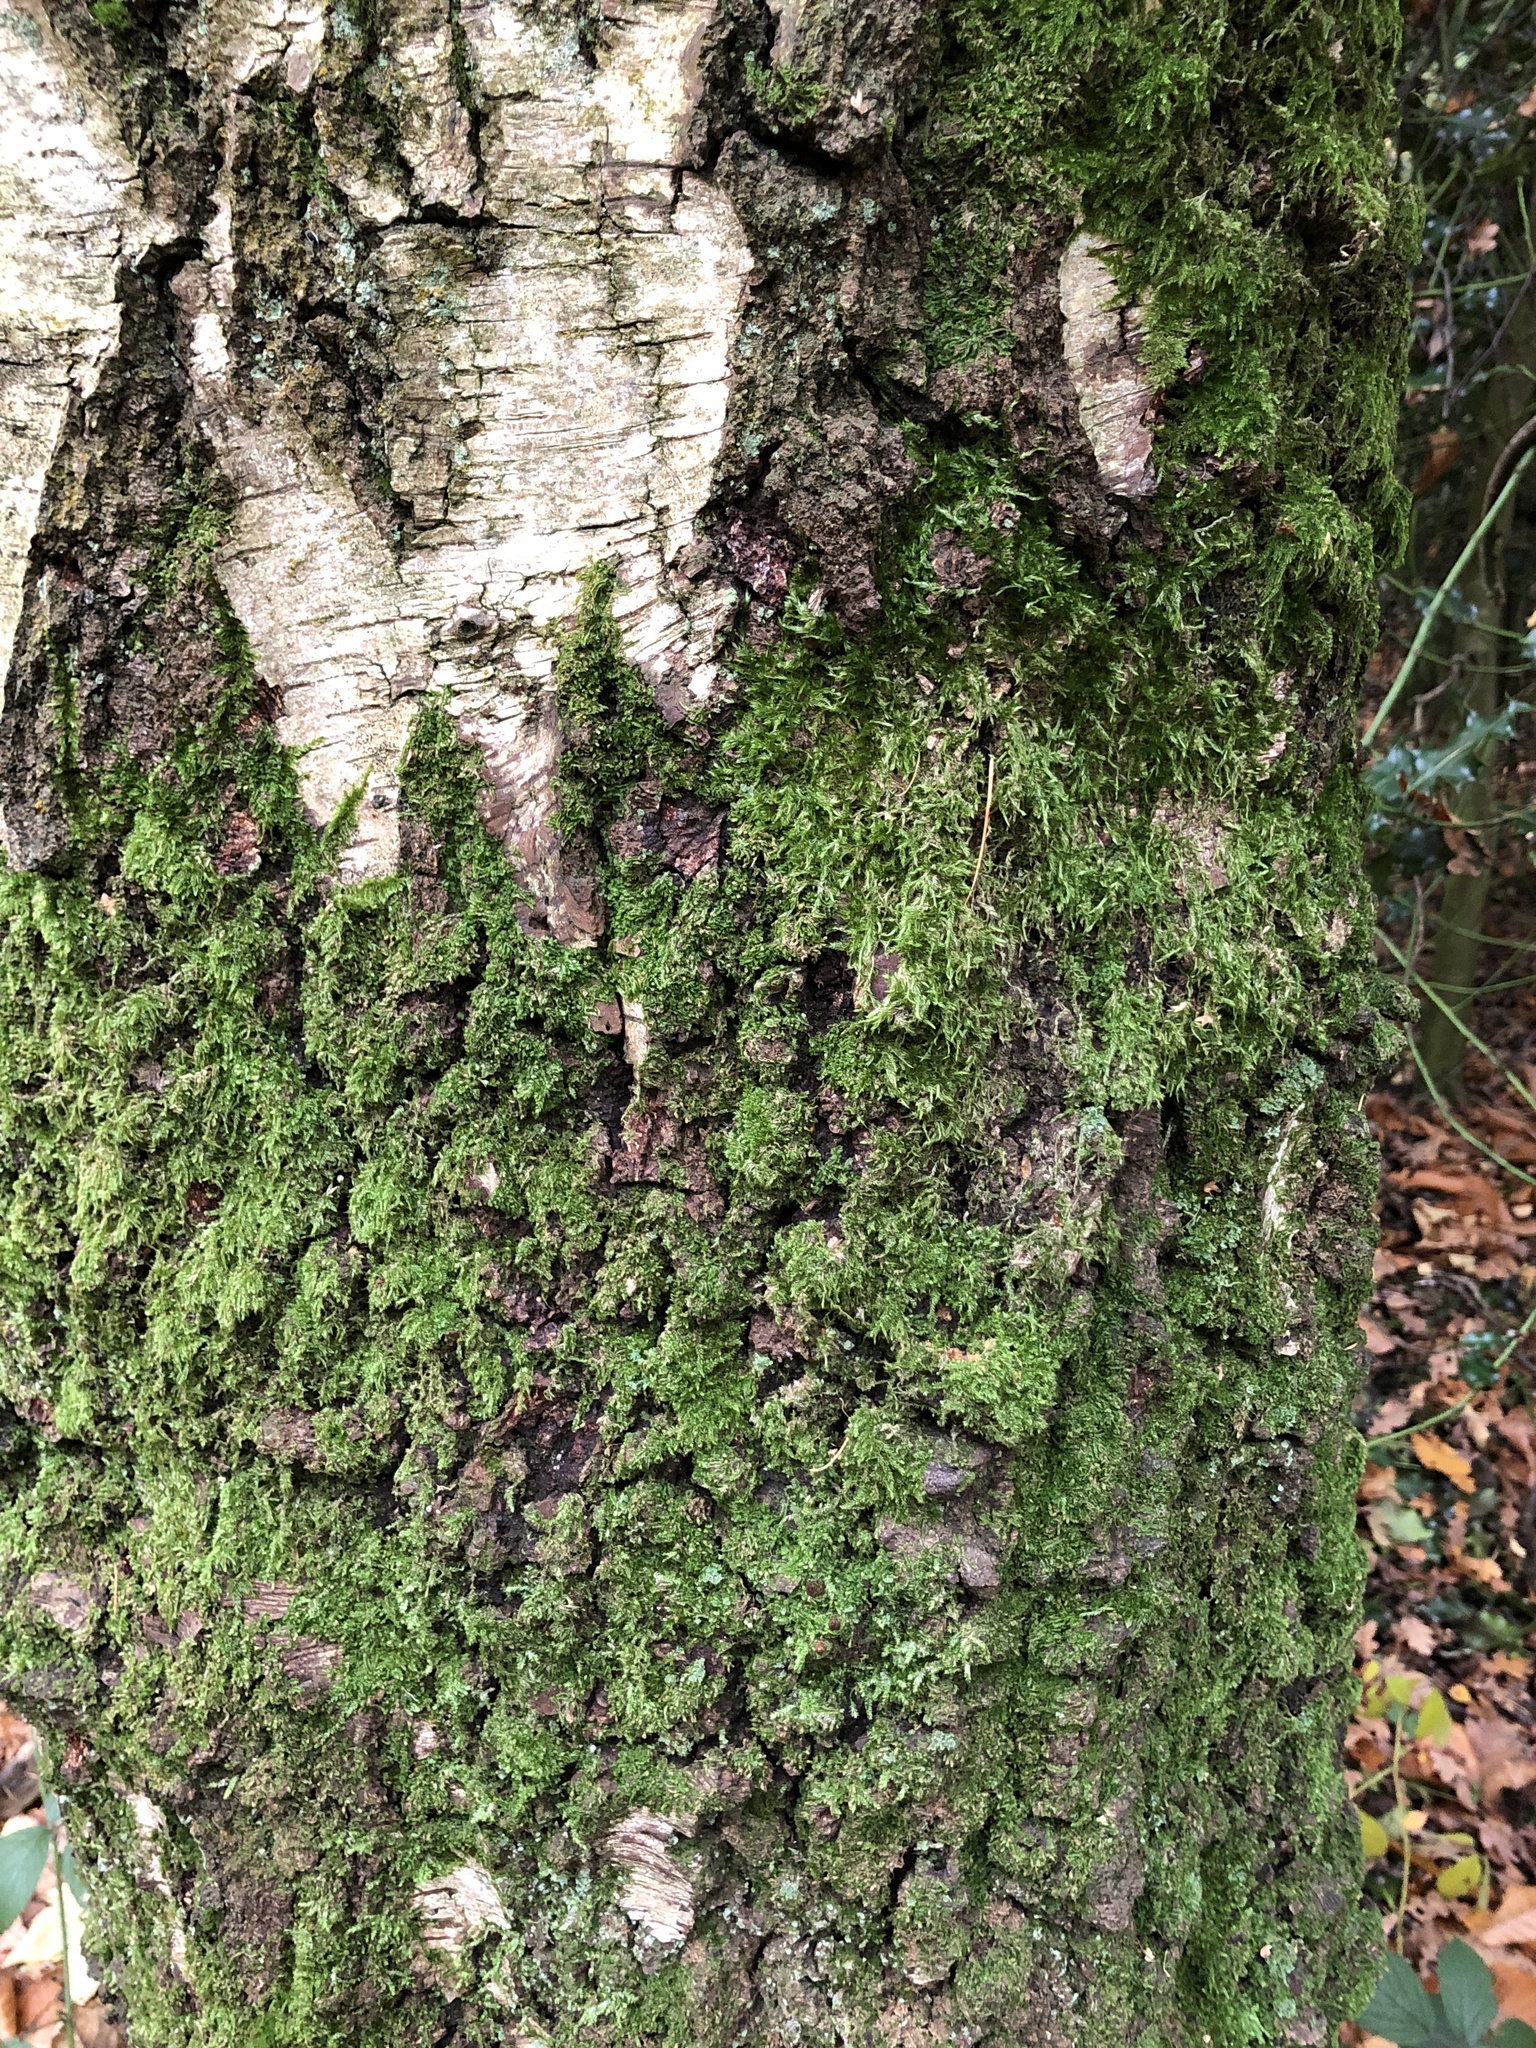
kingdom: Plantae
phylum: Marchantiophyta
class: Jungermanniopsida
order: Jungermanniales
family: Lophocoleaceae
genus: Lophocolea
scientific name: Lophocolea heterophylla
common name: Variable-leaved crestwort
